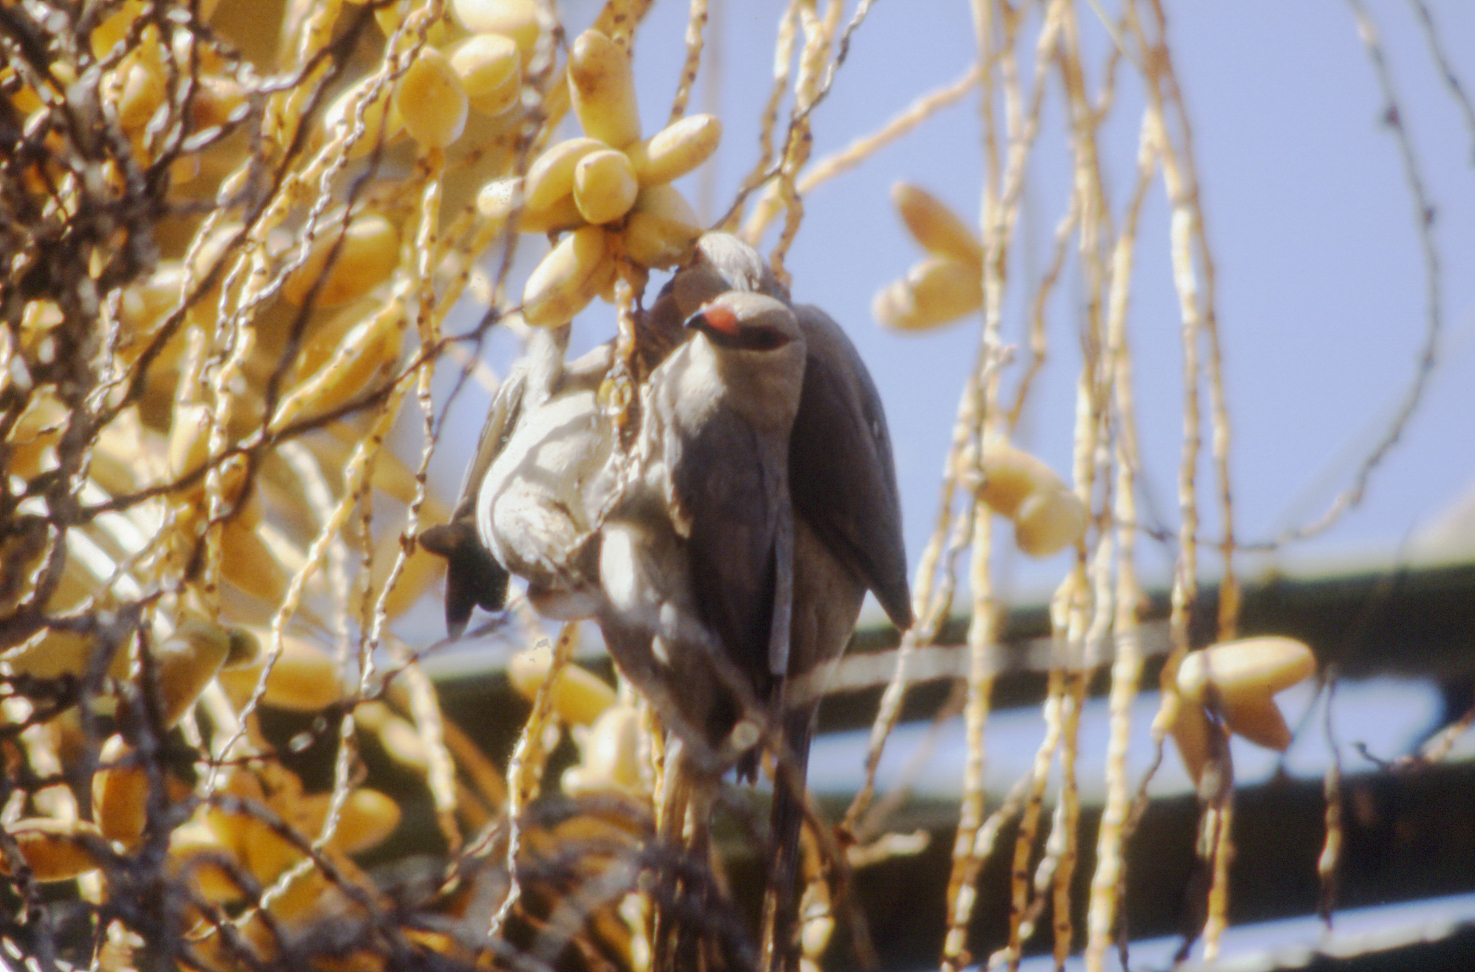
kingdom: Animalia
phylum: Chordata
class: Aves
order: Coliiformes
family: Coliidae
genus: Urocolius
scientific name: Urocolius macrourus
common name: Blue-naped mousebird
